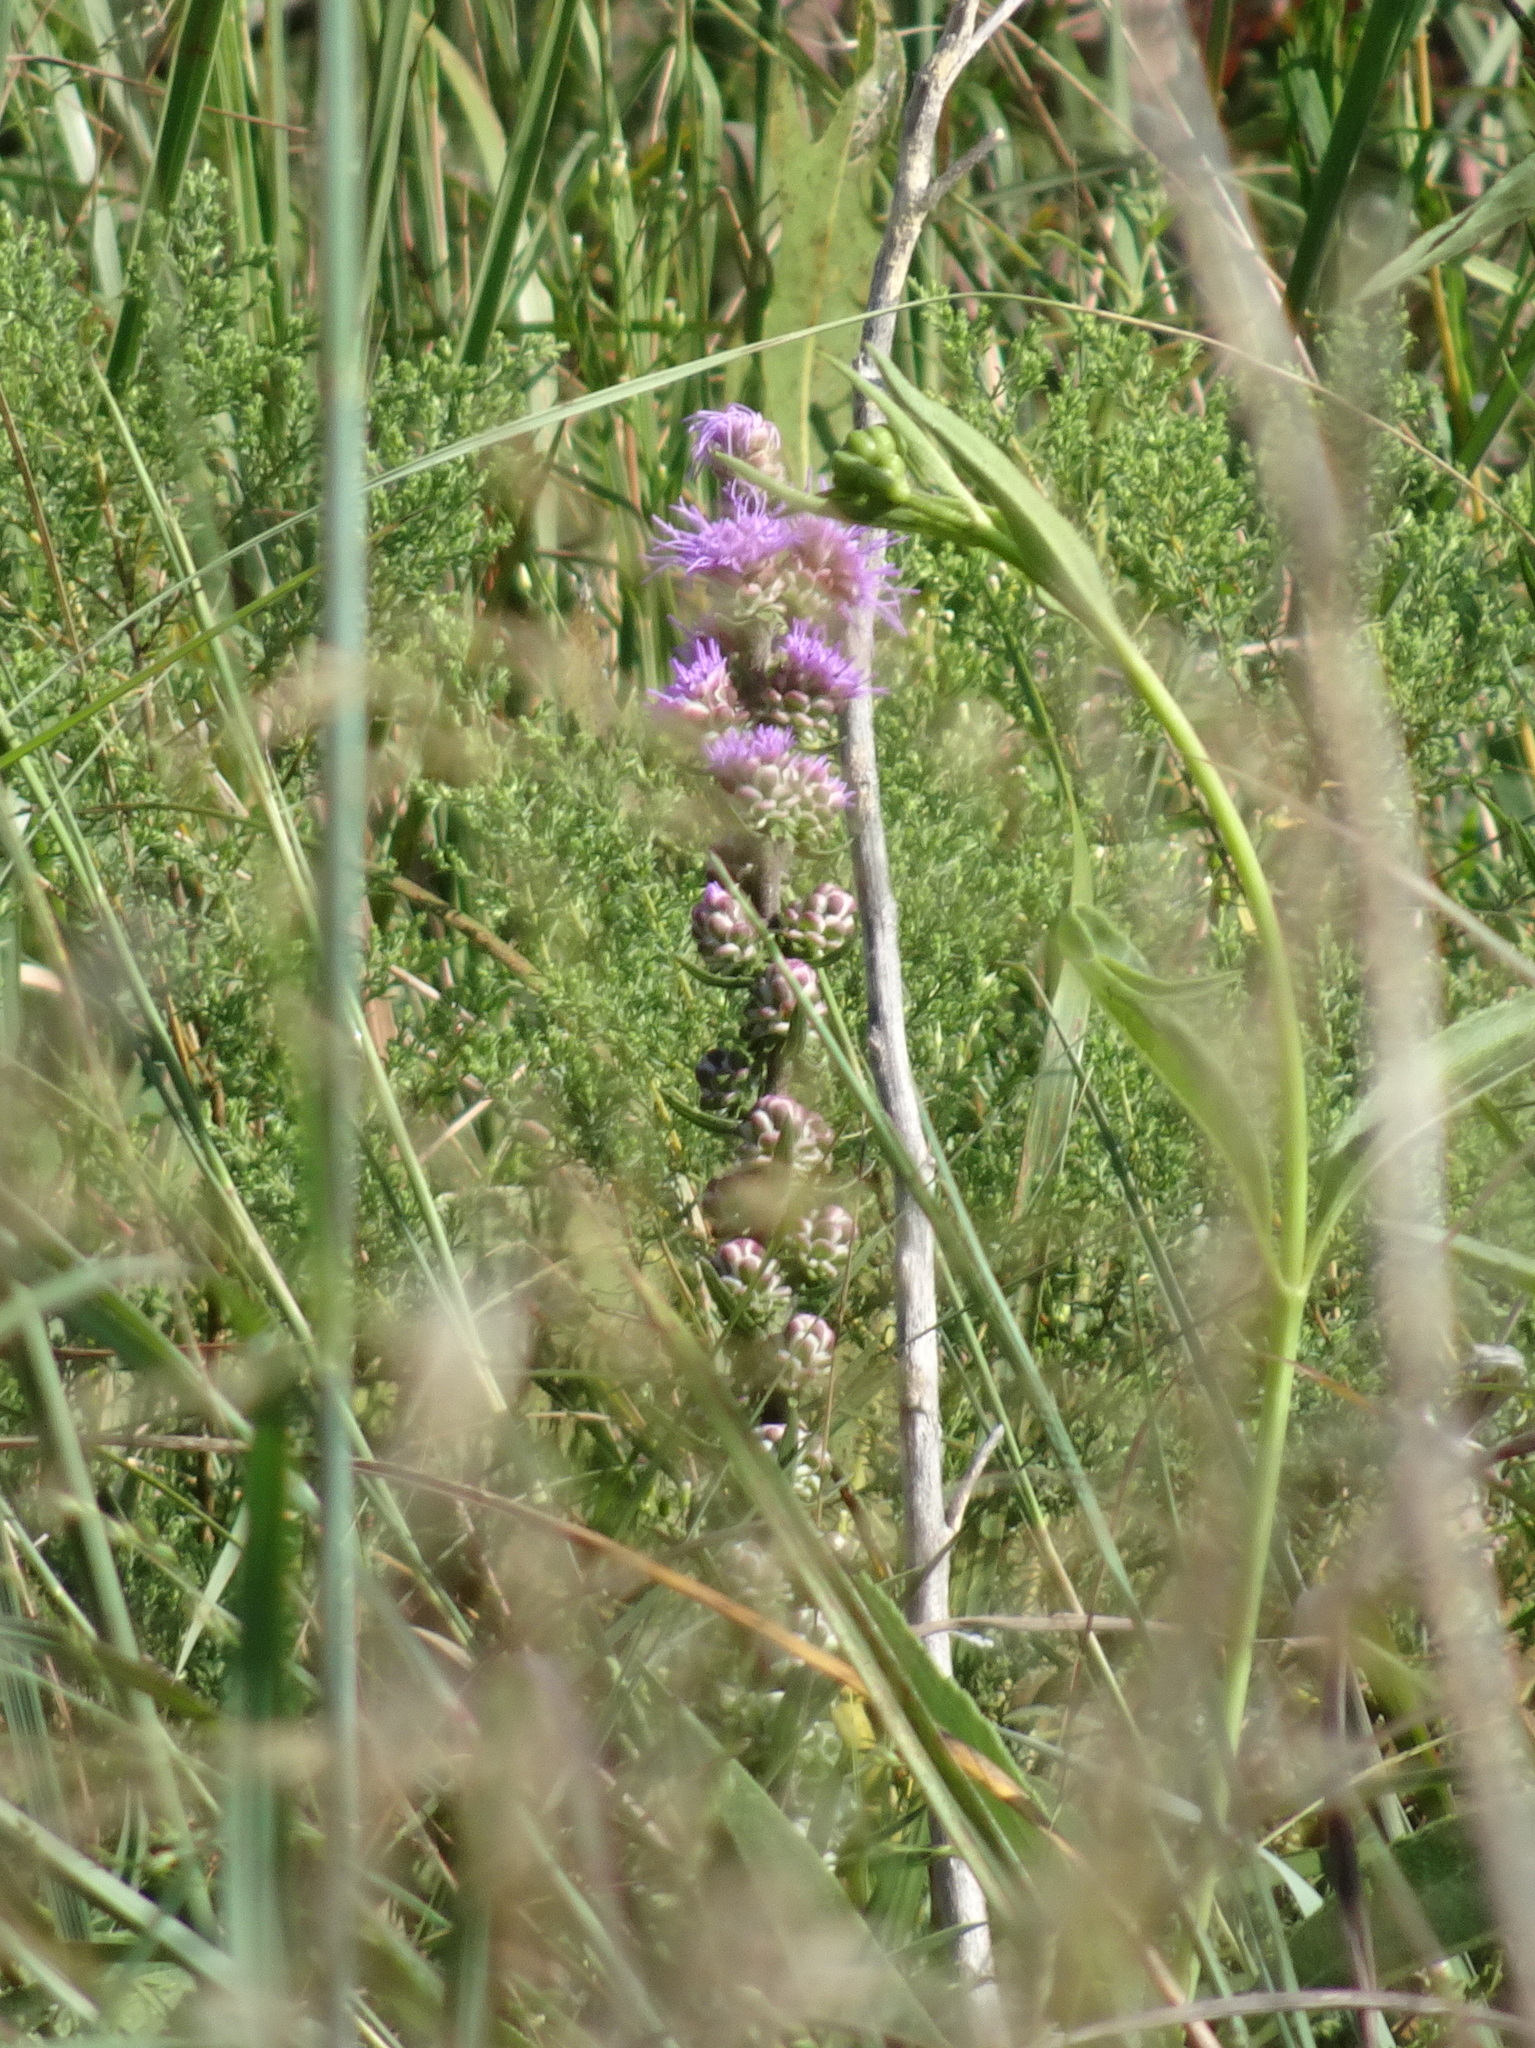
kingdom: Plantae
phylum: Tracheophyta
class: Magnoliopsida
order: Asterales
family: Asteraceae
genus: Liatris
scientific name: Liatris aspera
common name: Lacerate blazing-star
